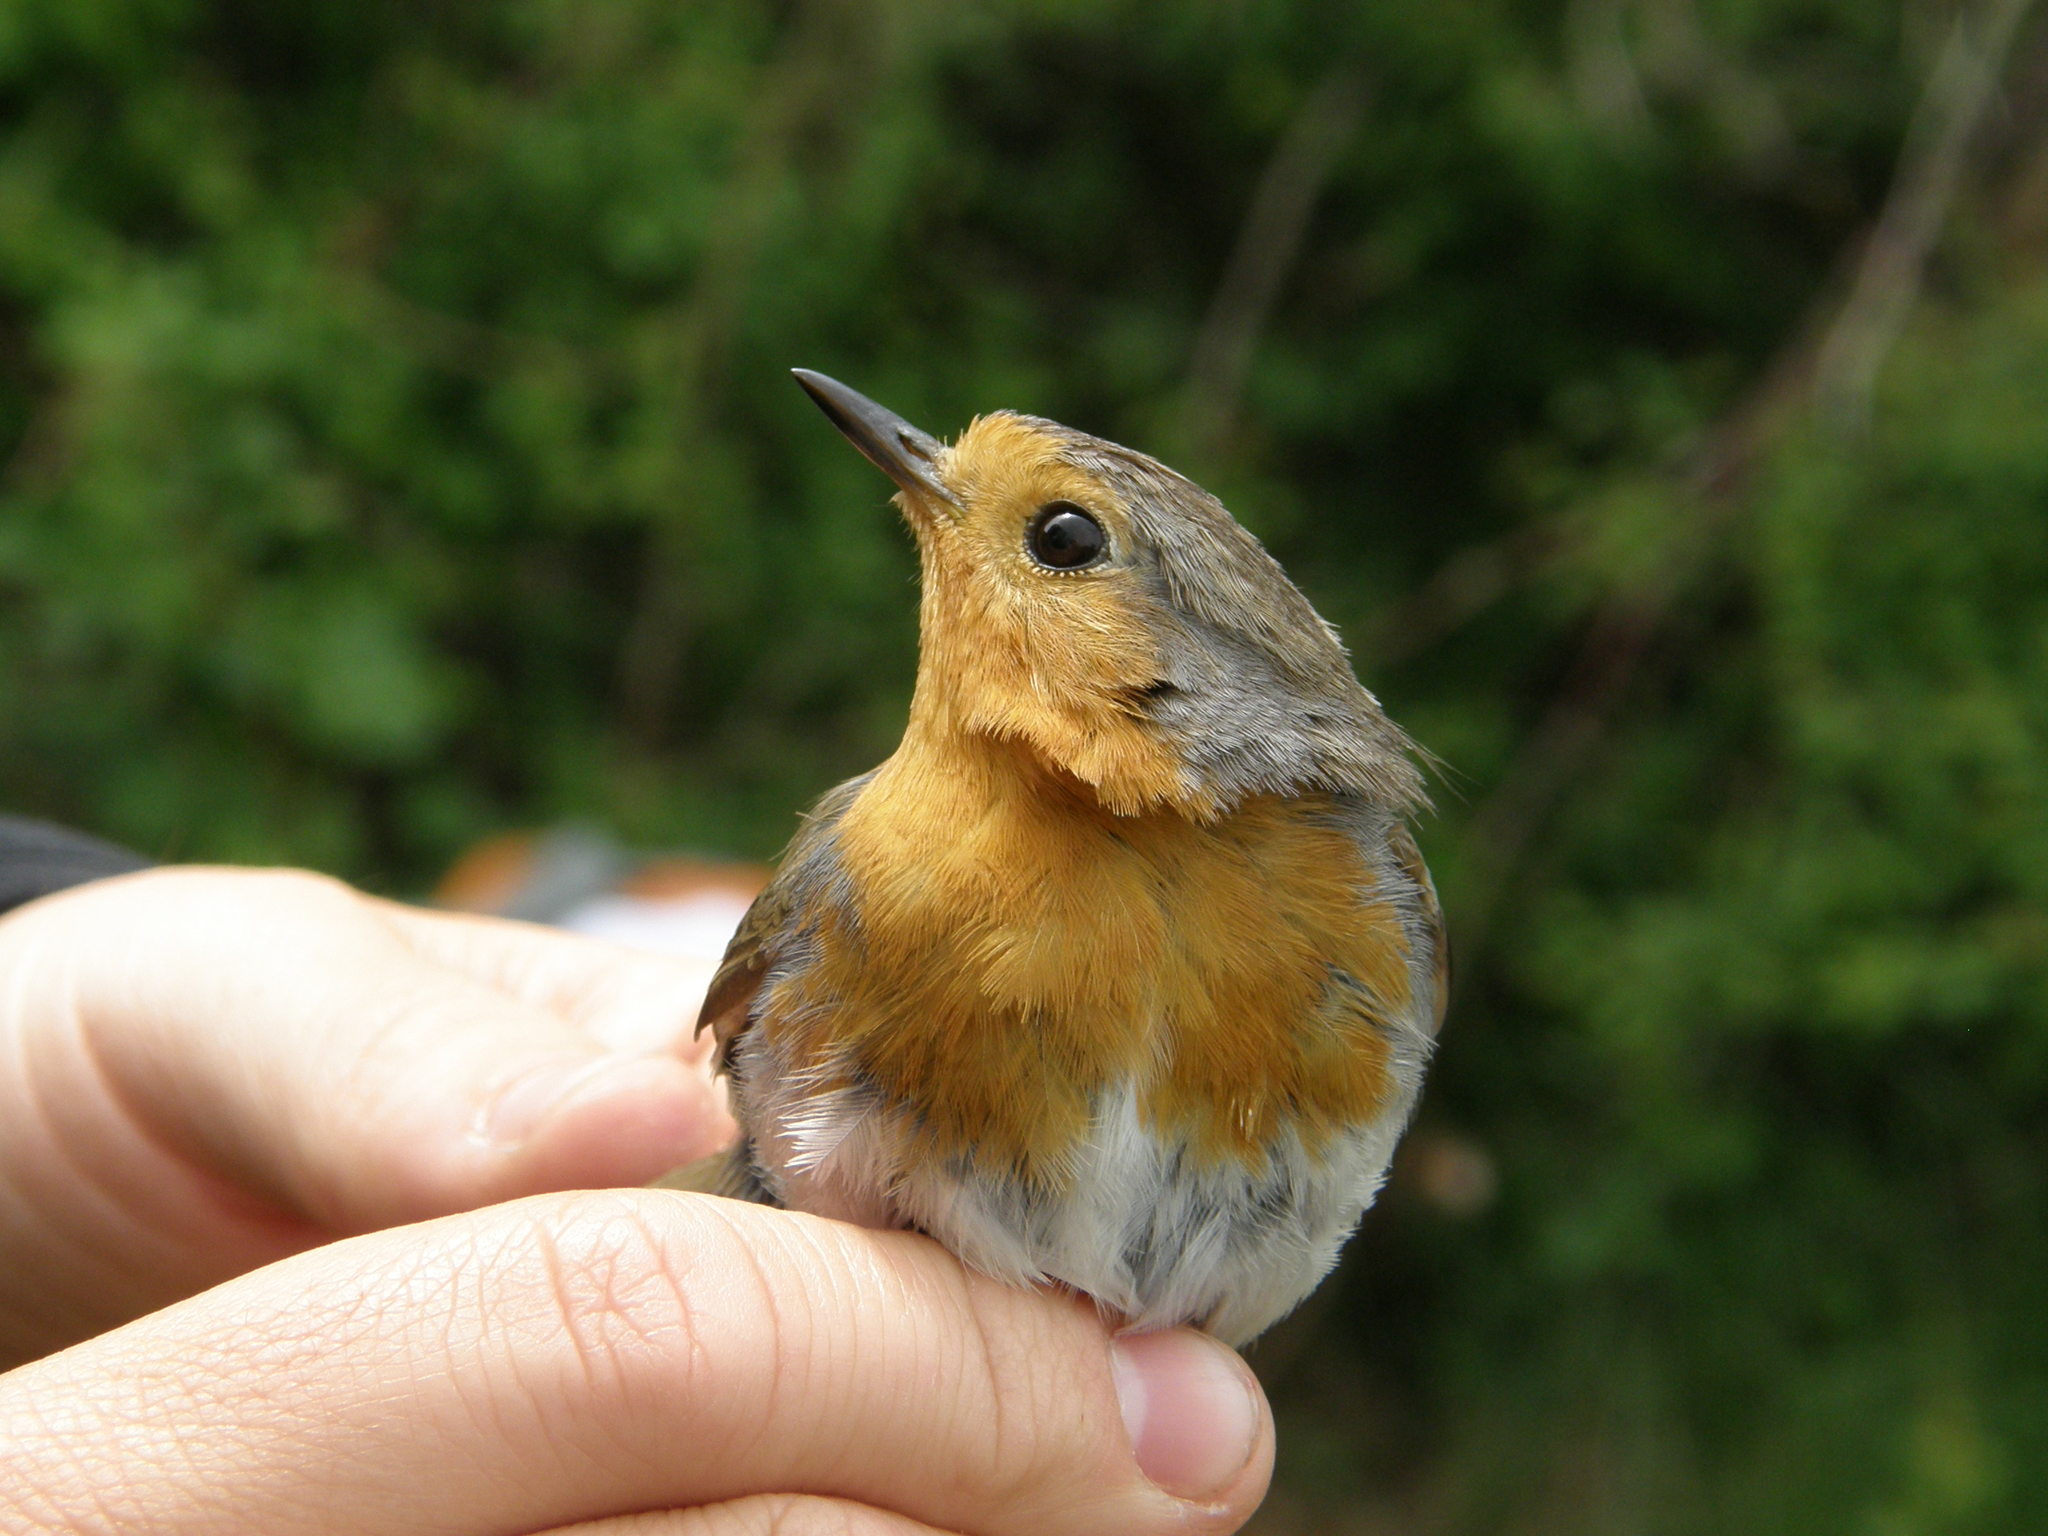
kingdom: Animalia
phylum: Chordata
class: Aves
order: Passeriformes
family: Muscicapidae
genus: Erithacus
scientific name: Erithacus rubecula
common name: European robin
